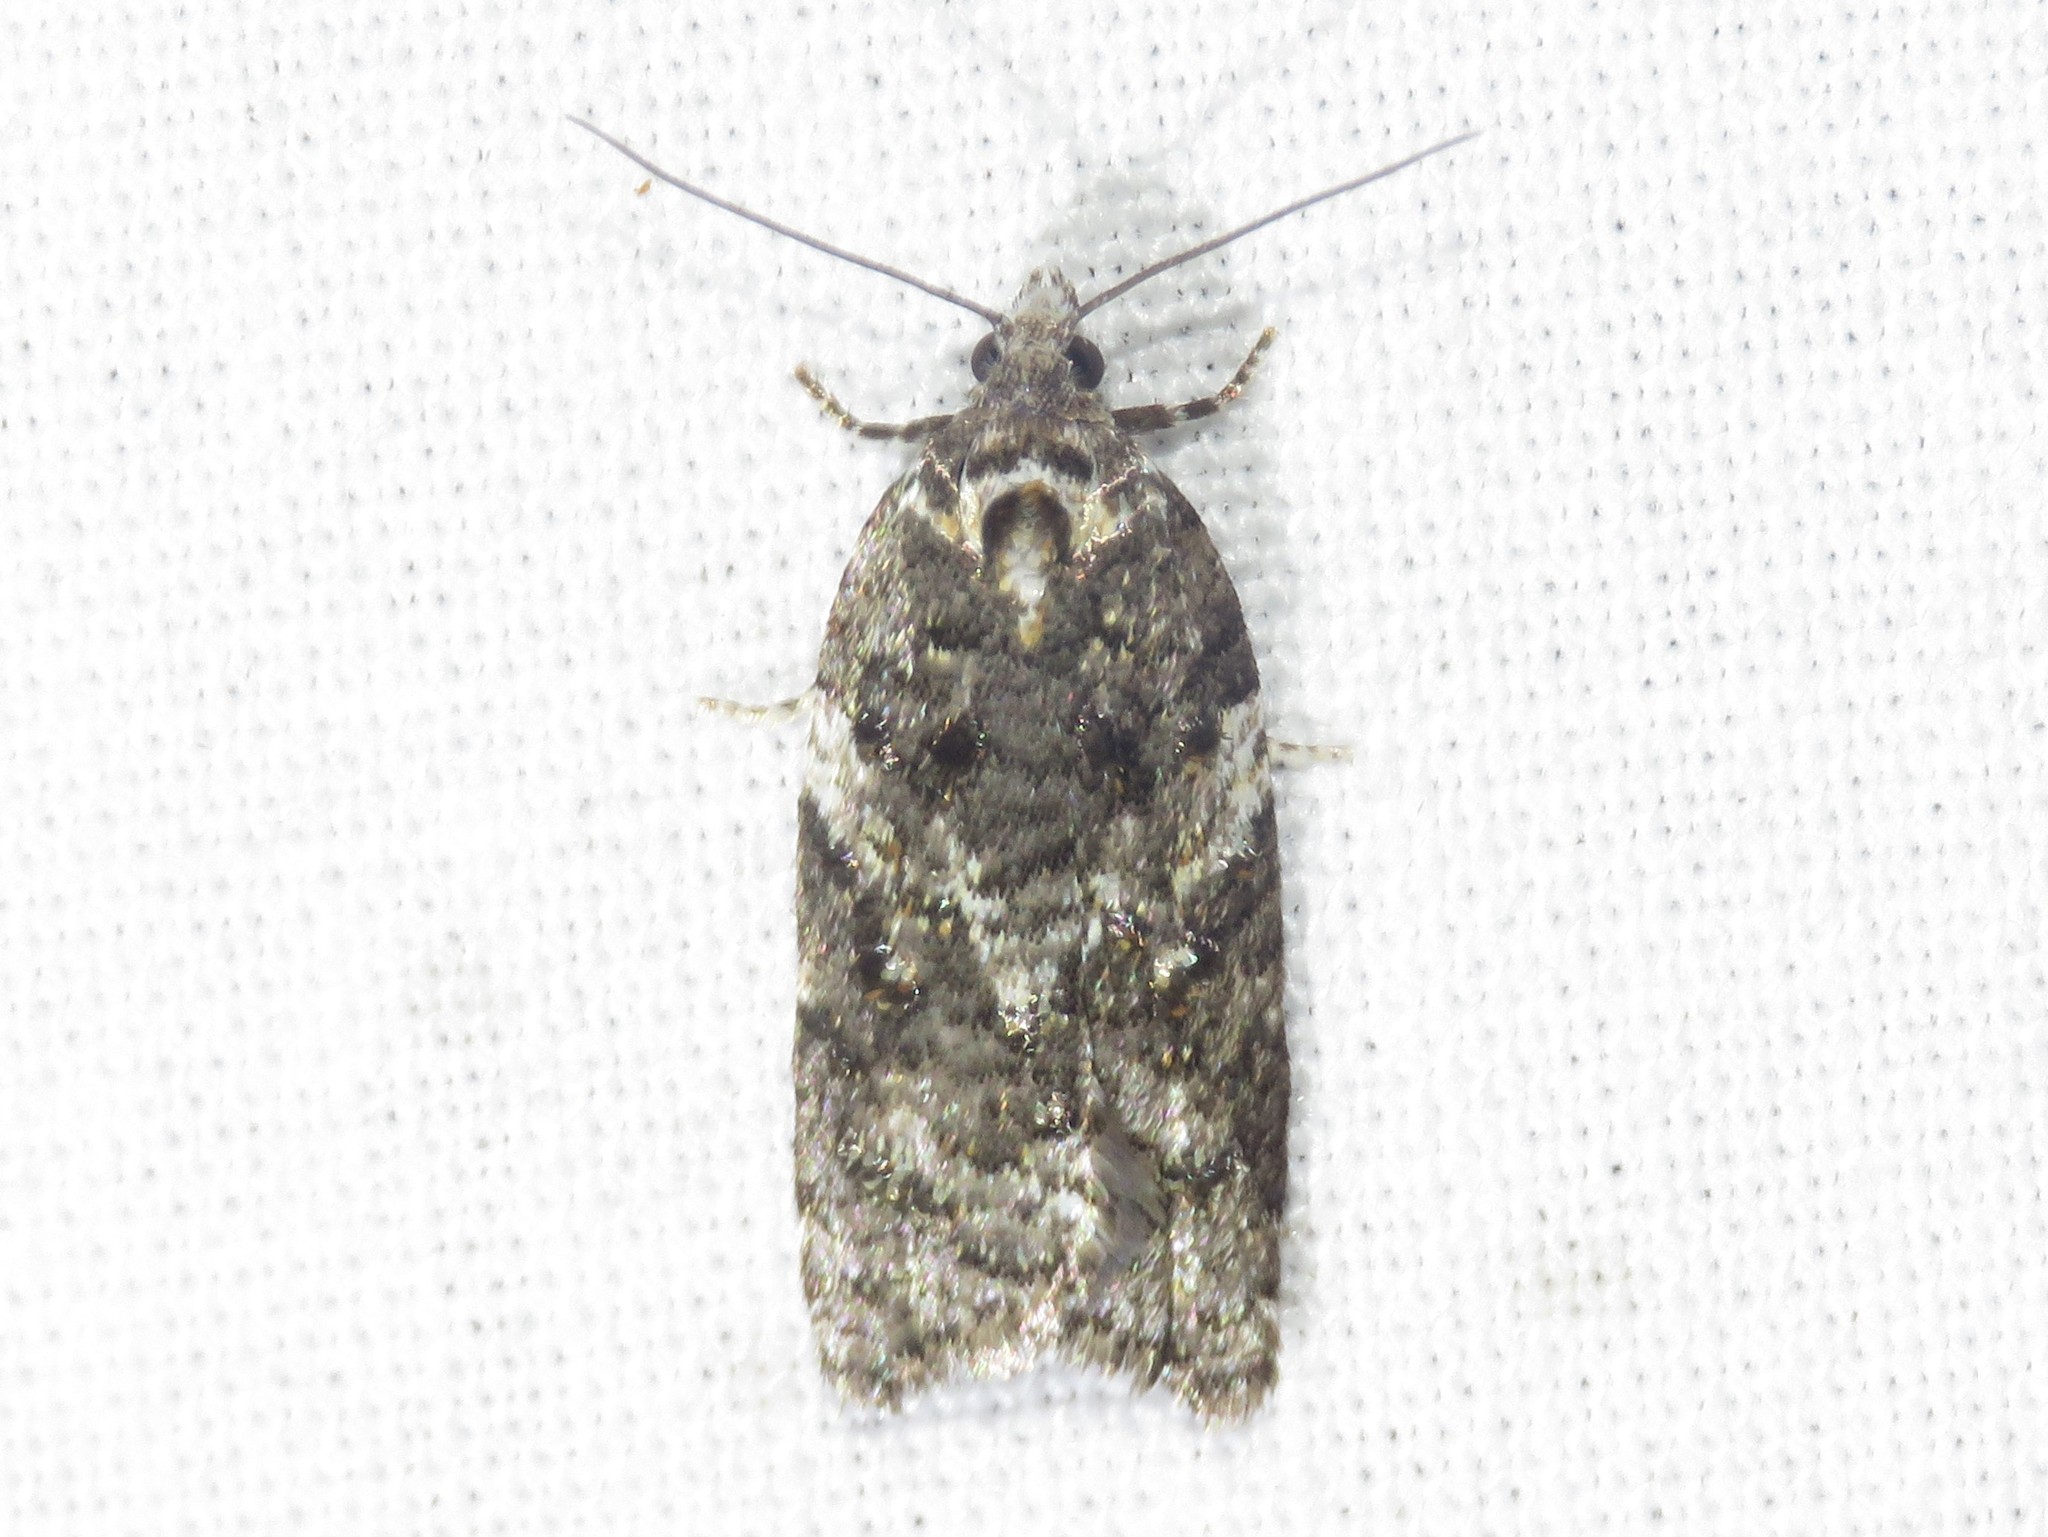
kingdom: Animalia
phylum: Arthropoda
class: Insecta
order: Lepidoptera
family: Tortricidae
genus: Acleris
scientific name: Acleris variana
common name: Eastern black-headed budworm moth
